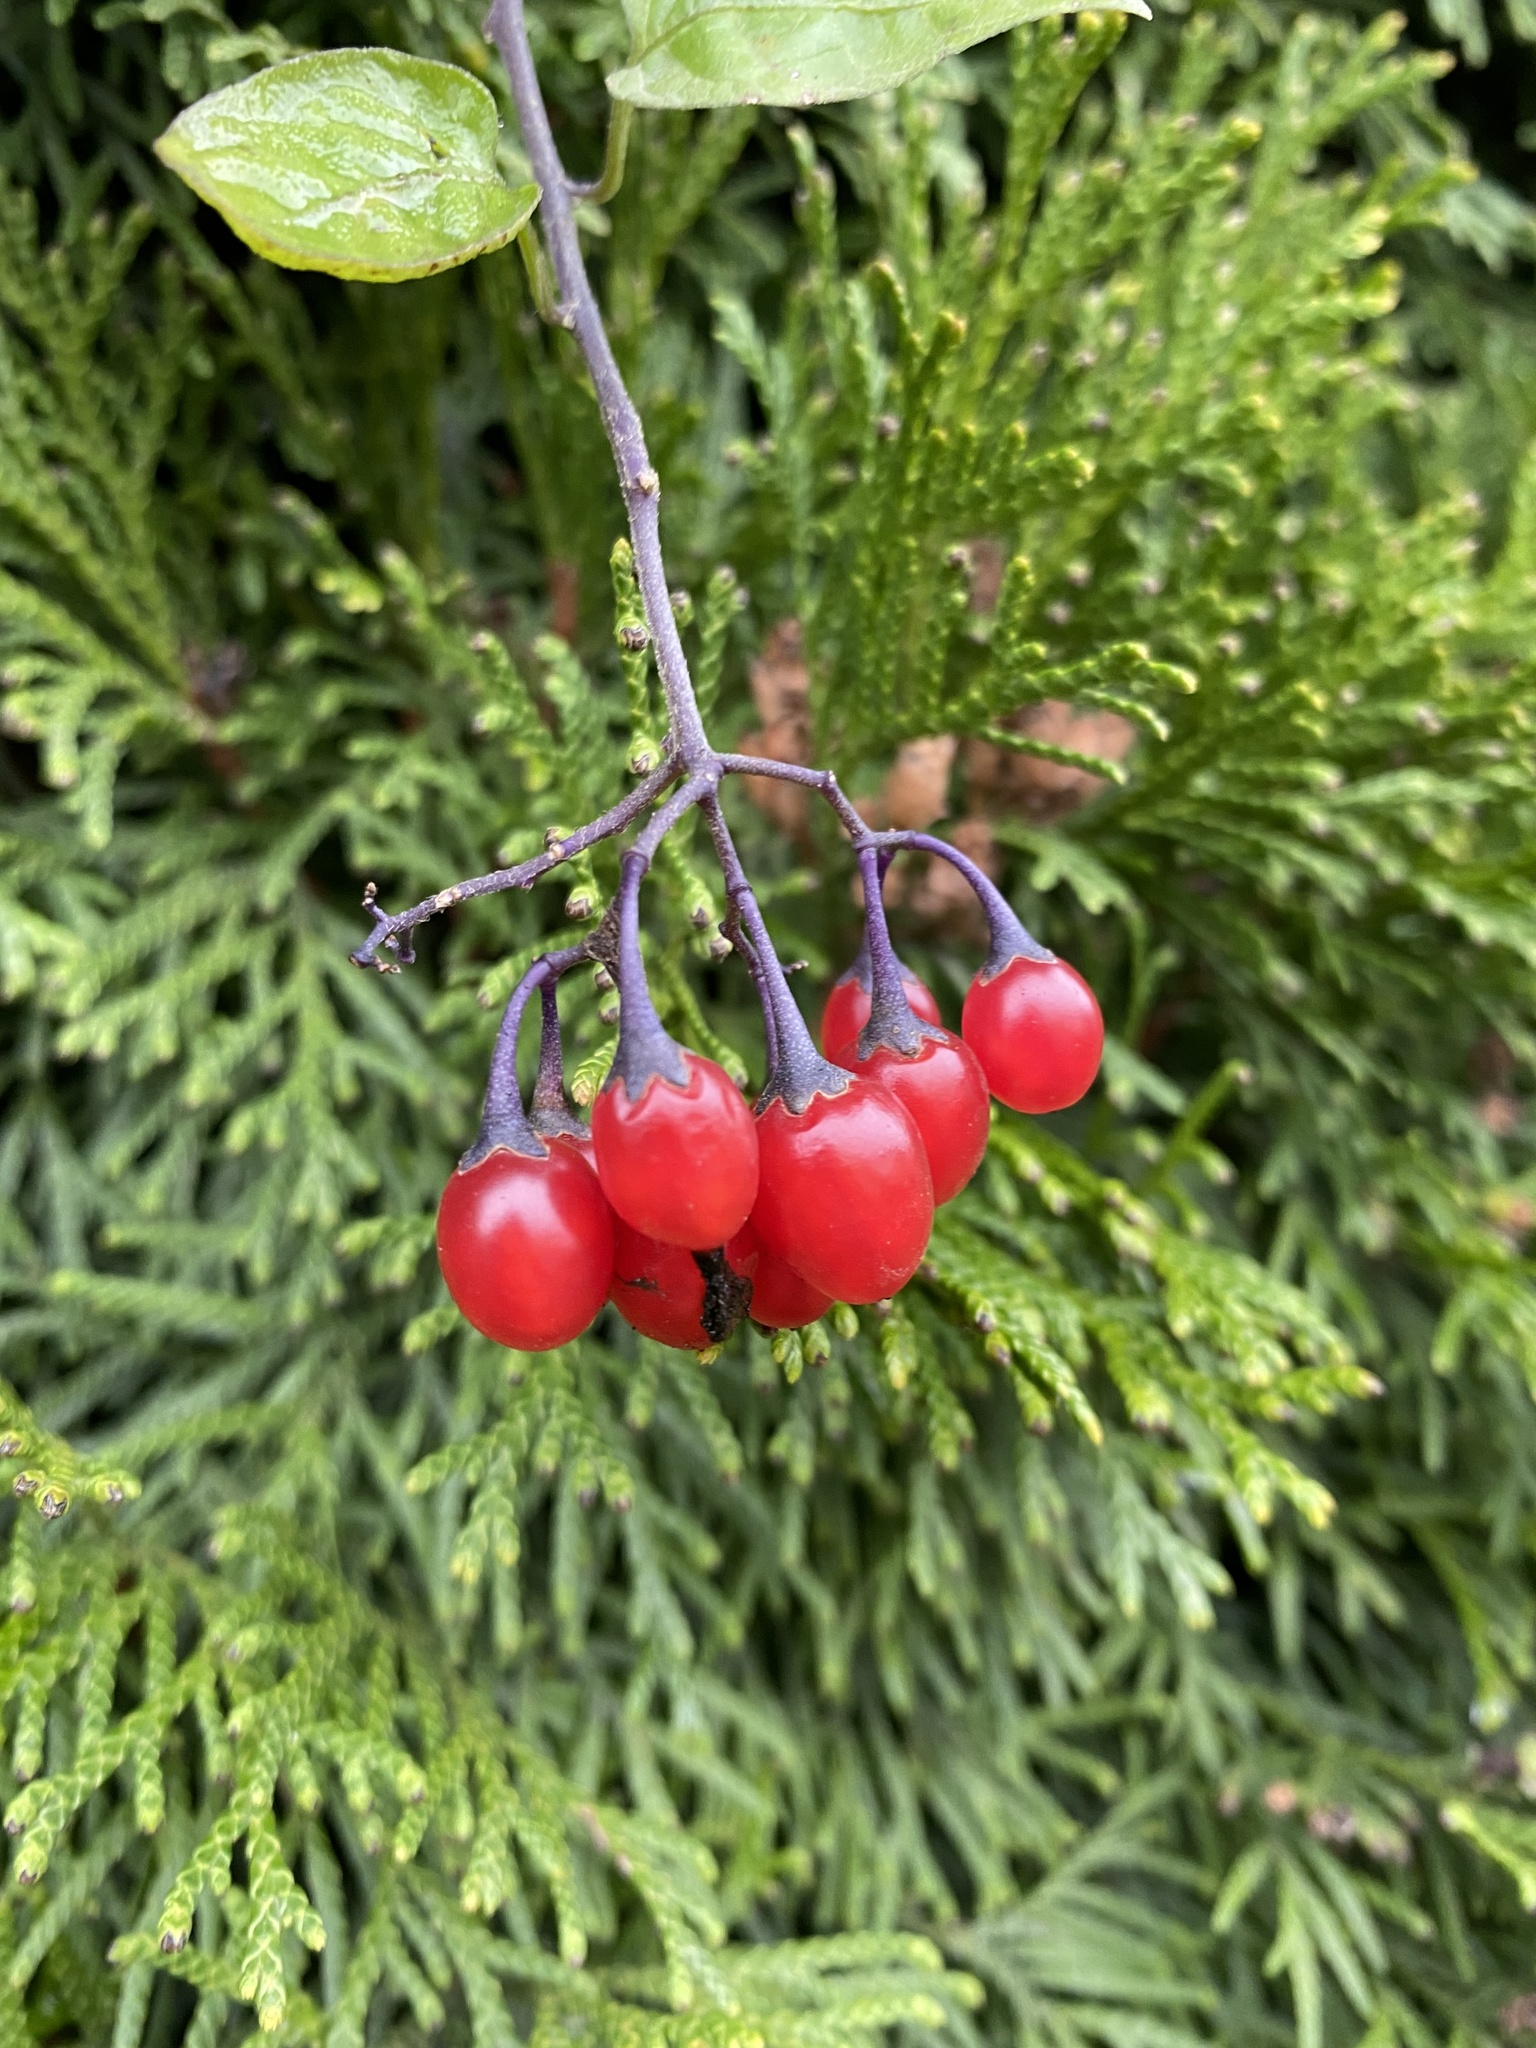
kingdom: Plantae
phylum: Tracheophyta
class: Magnoliopsida
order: Solanales
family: Solanaceae
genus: Solanum
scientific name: Solanum dulcamara
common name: Climbing nightshade
